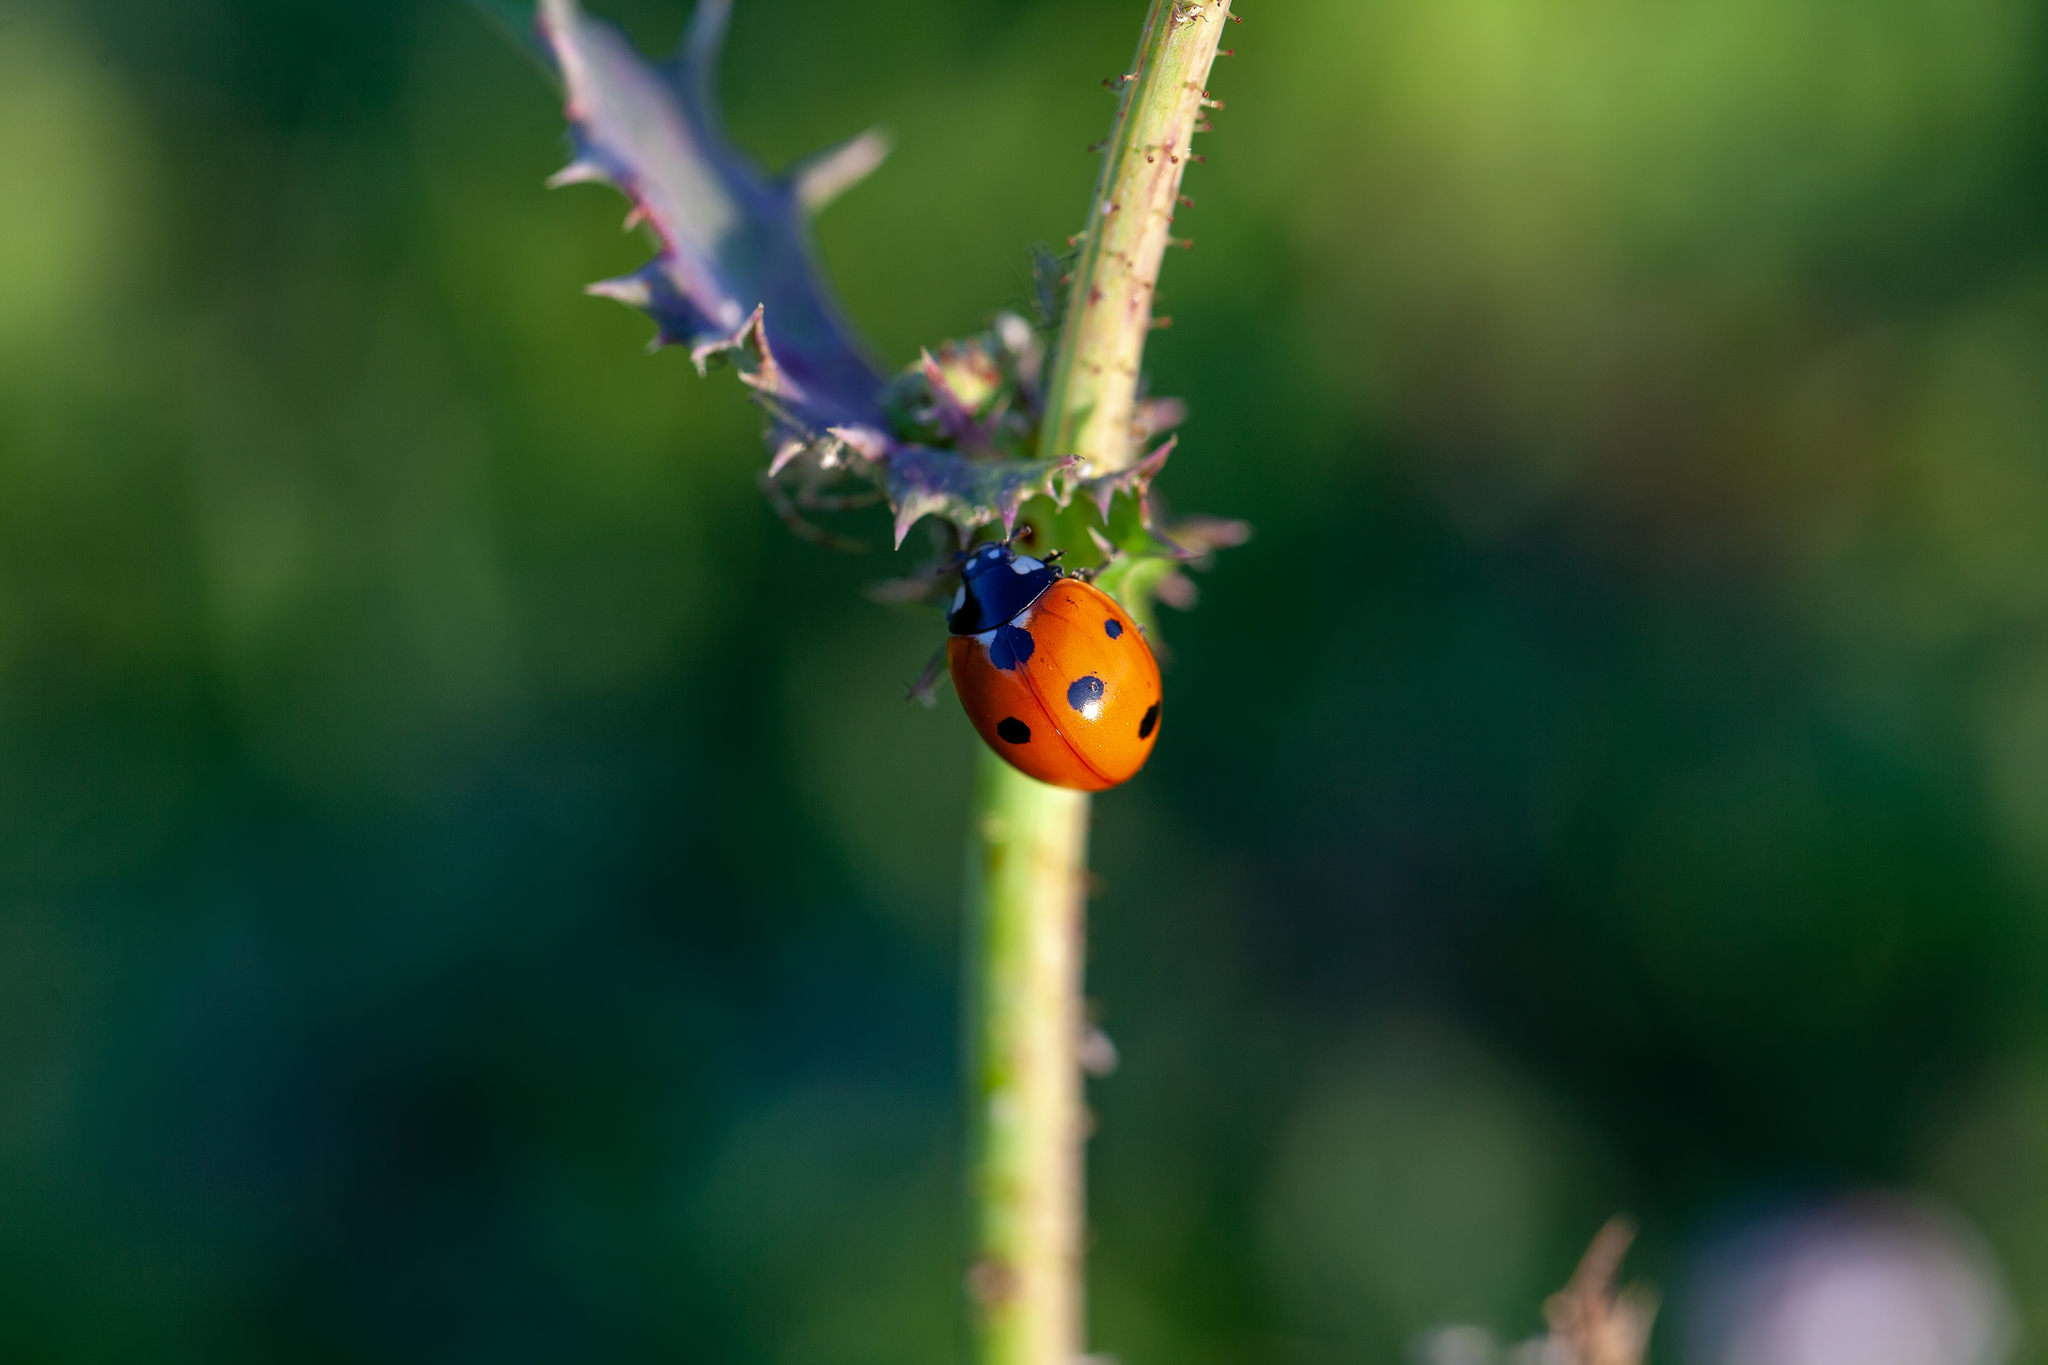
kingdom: Animalia
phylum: Arthropoda
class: Insecta
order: Coleoptera
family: Coccinellidae
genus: Coccinella
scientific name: Coccinella septempunctata
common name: Sevenspotted lady beetle
